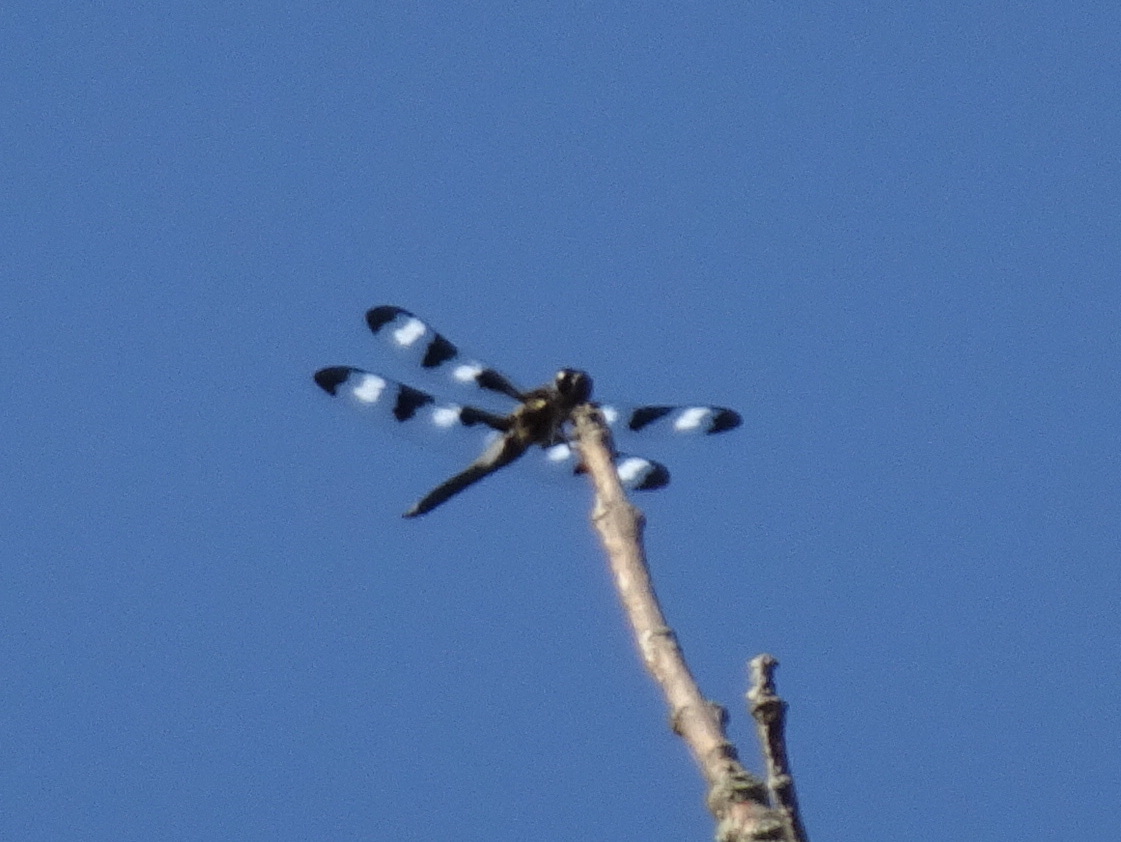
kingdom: Animalia
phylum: Arthropoda
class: Insecta
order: Odonata
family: Libellulidae
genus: Libellula
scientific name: Libellula pulchella
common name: Twelve-spotted skimmer
